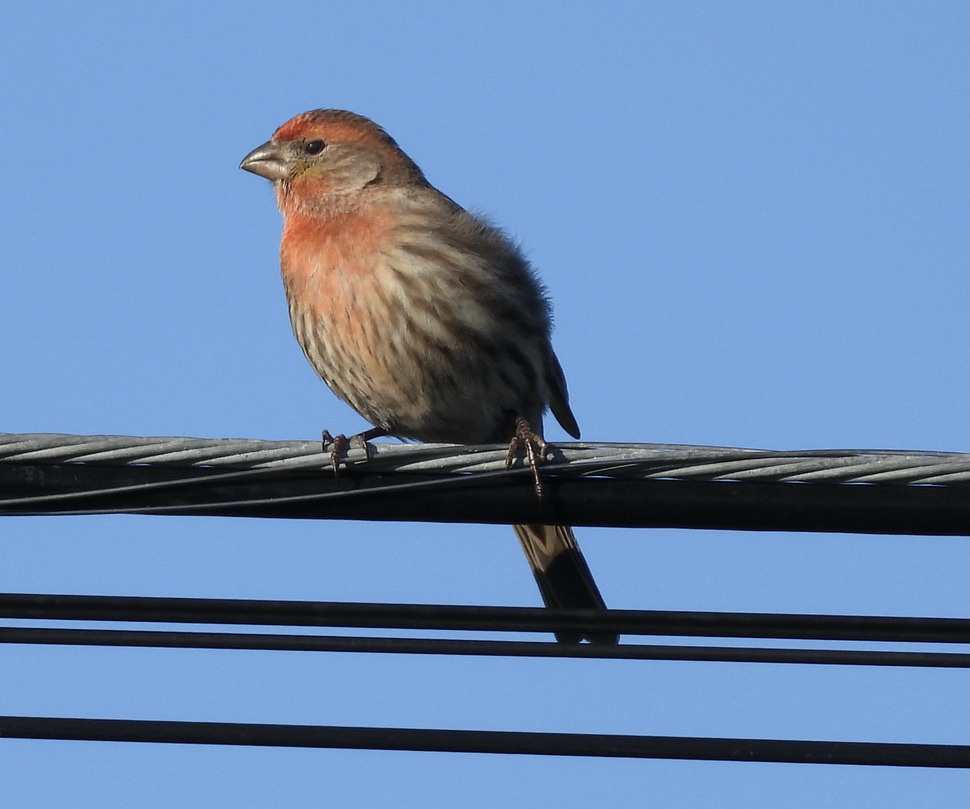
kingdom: Animalia
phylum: Chordata
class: Aves
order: Passeriformes
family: Fringillidae
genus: Haemorhous
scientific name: Haemorhous mexicanus
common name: House finch
